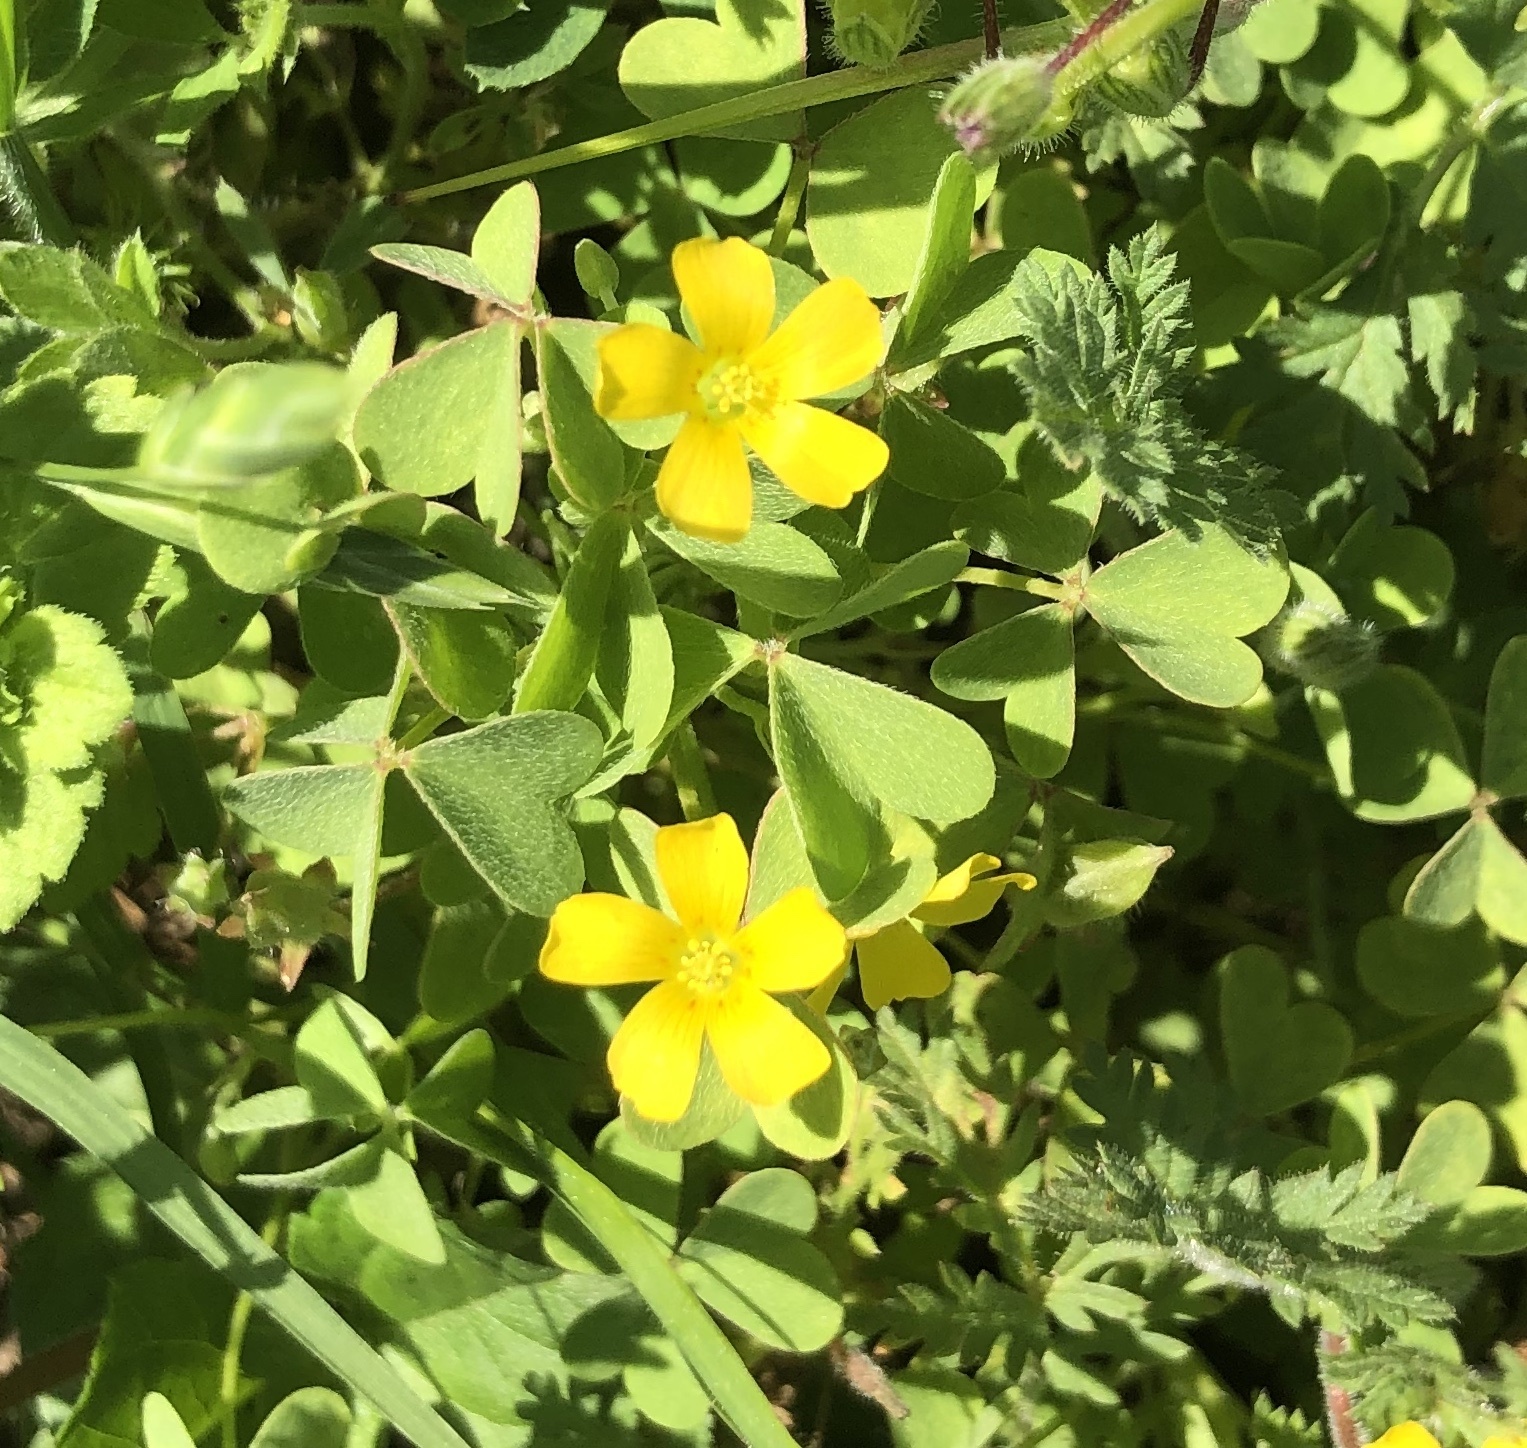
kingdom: Plantae
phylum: Tracheophyta
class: Magnoliopsida
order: Oxalidales
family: Oxalidaceae
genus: Oxalis
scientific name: Oxalis dillenii
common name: Sussex yellow-sorrel
